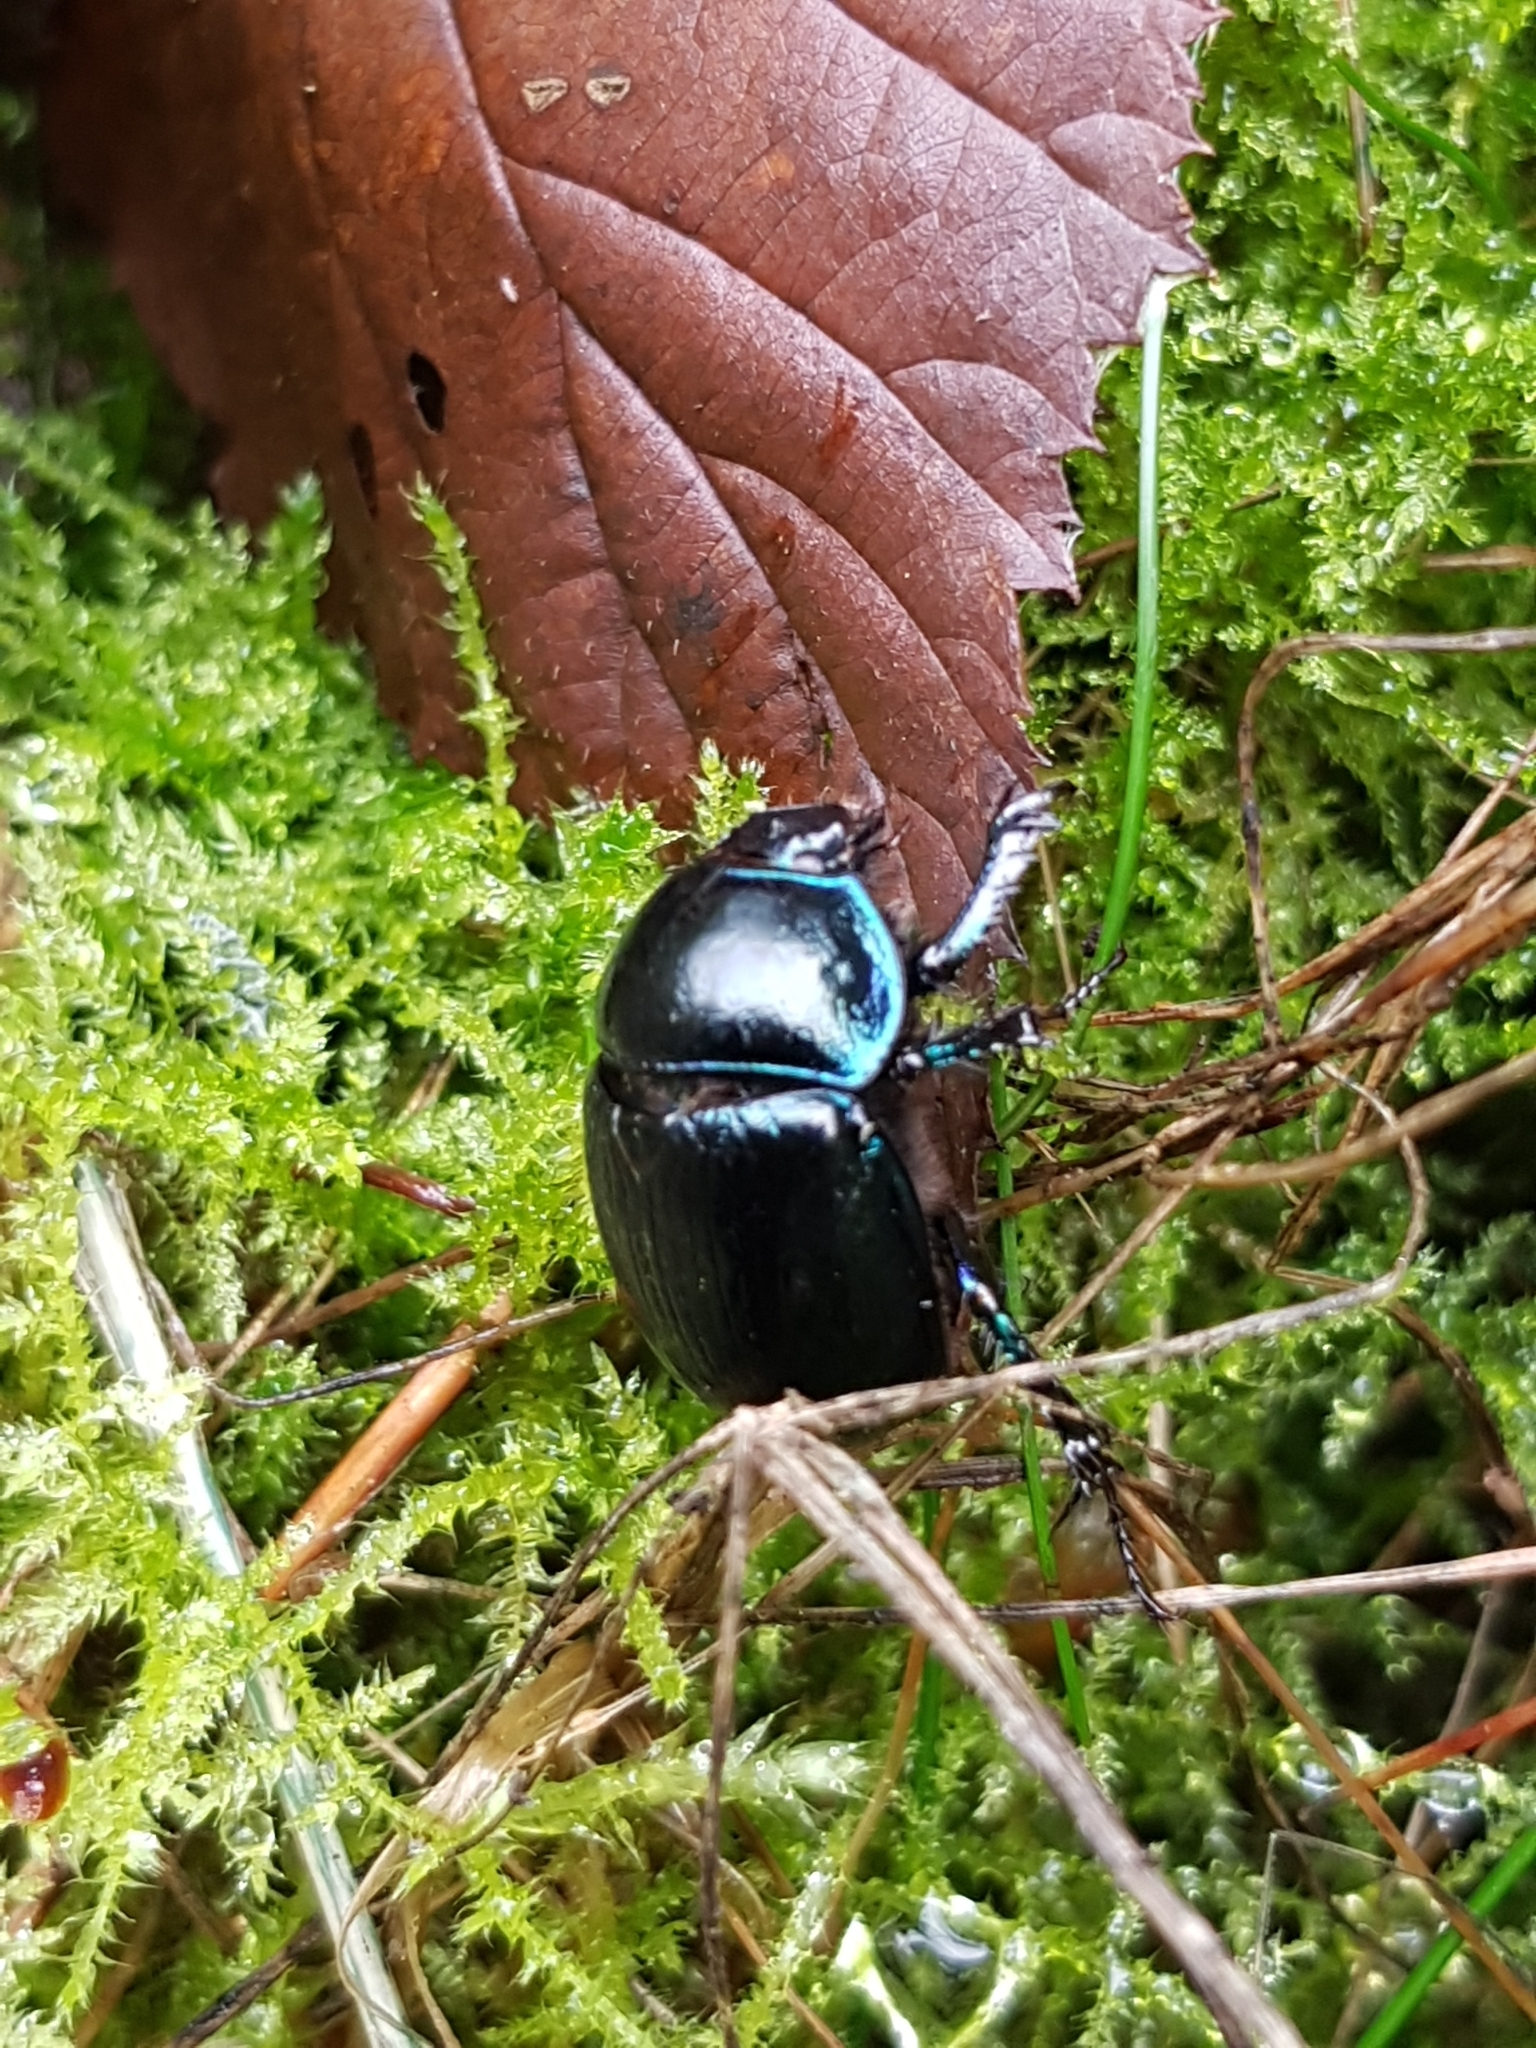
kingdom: Animalia
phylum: Arthropoda
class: Insecta
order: Coleoptera
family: Geotrupidae
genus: Anoplotrupes
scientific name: Anoplotrupes stercorosus
